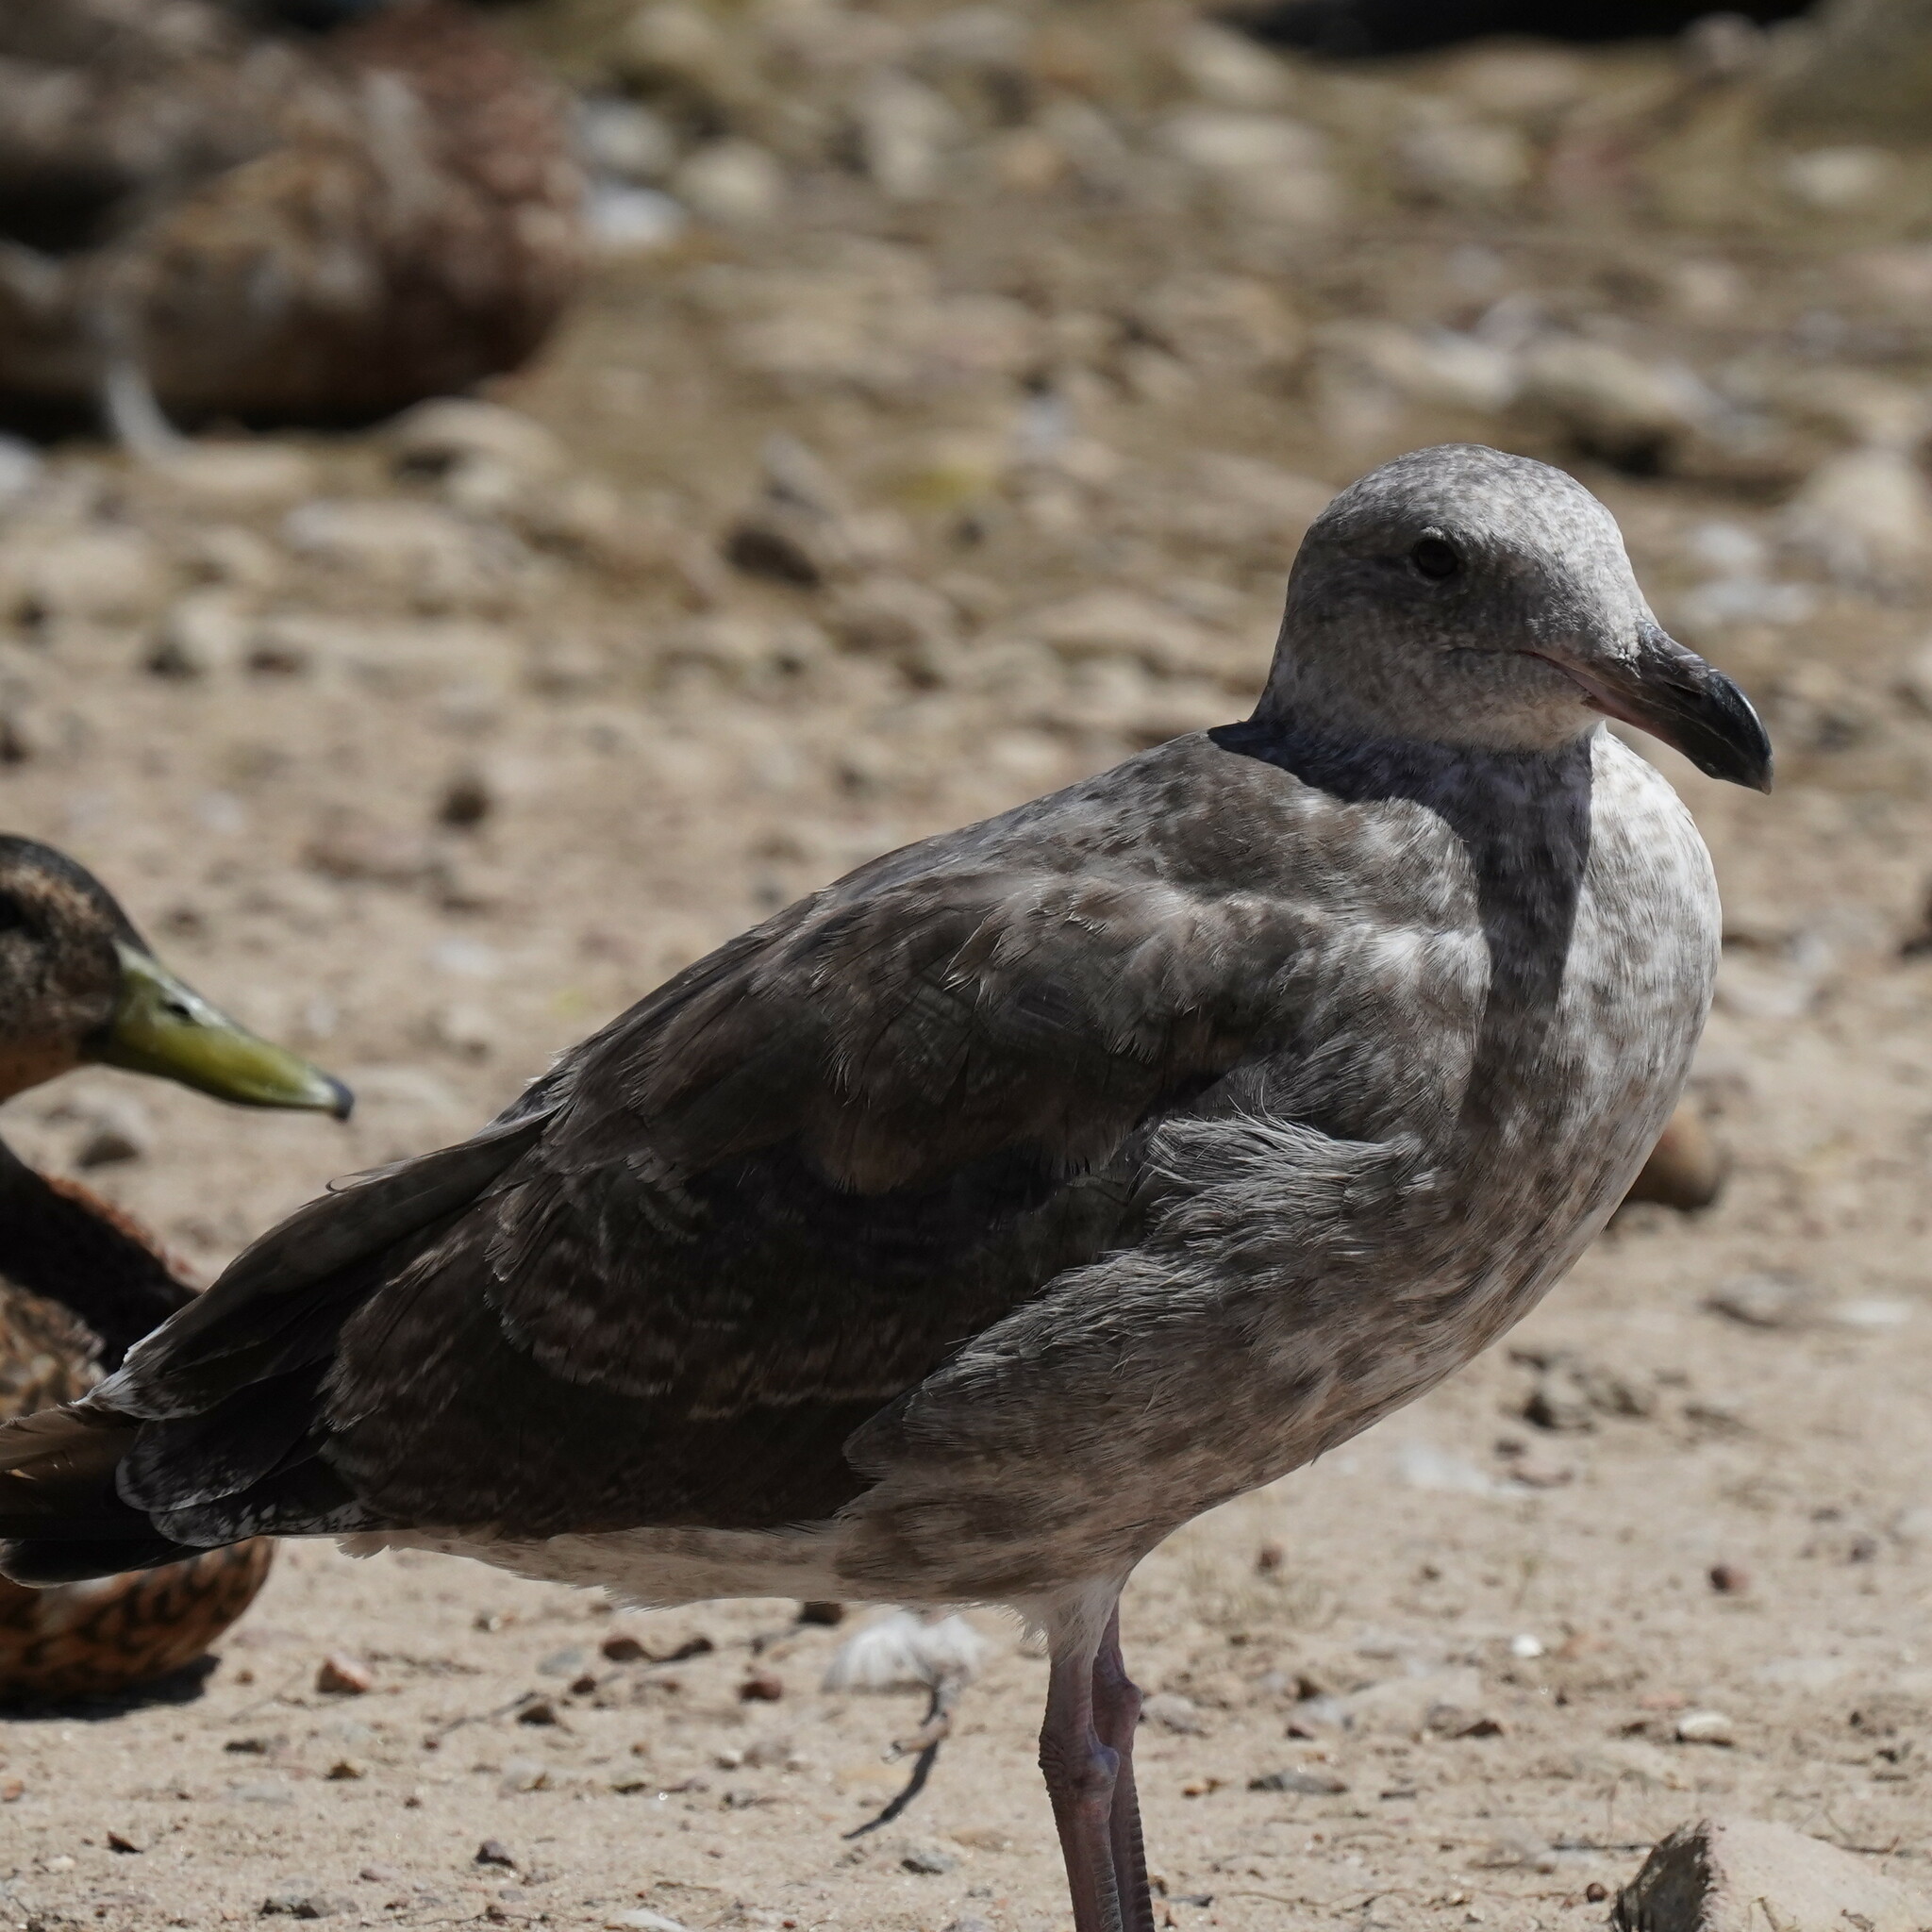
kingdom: Animalia
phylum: Chordata
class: Aves
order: Charadriiformes
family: Laridae
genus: Larus
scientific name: Larus occidentalis
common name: Western gull
